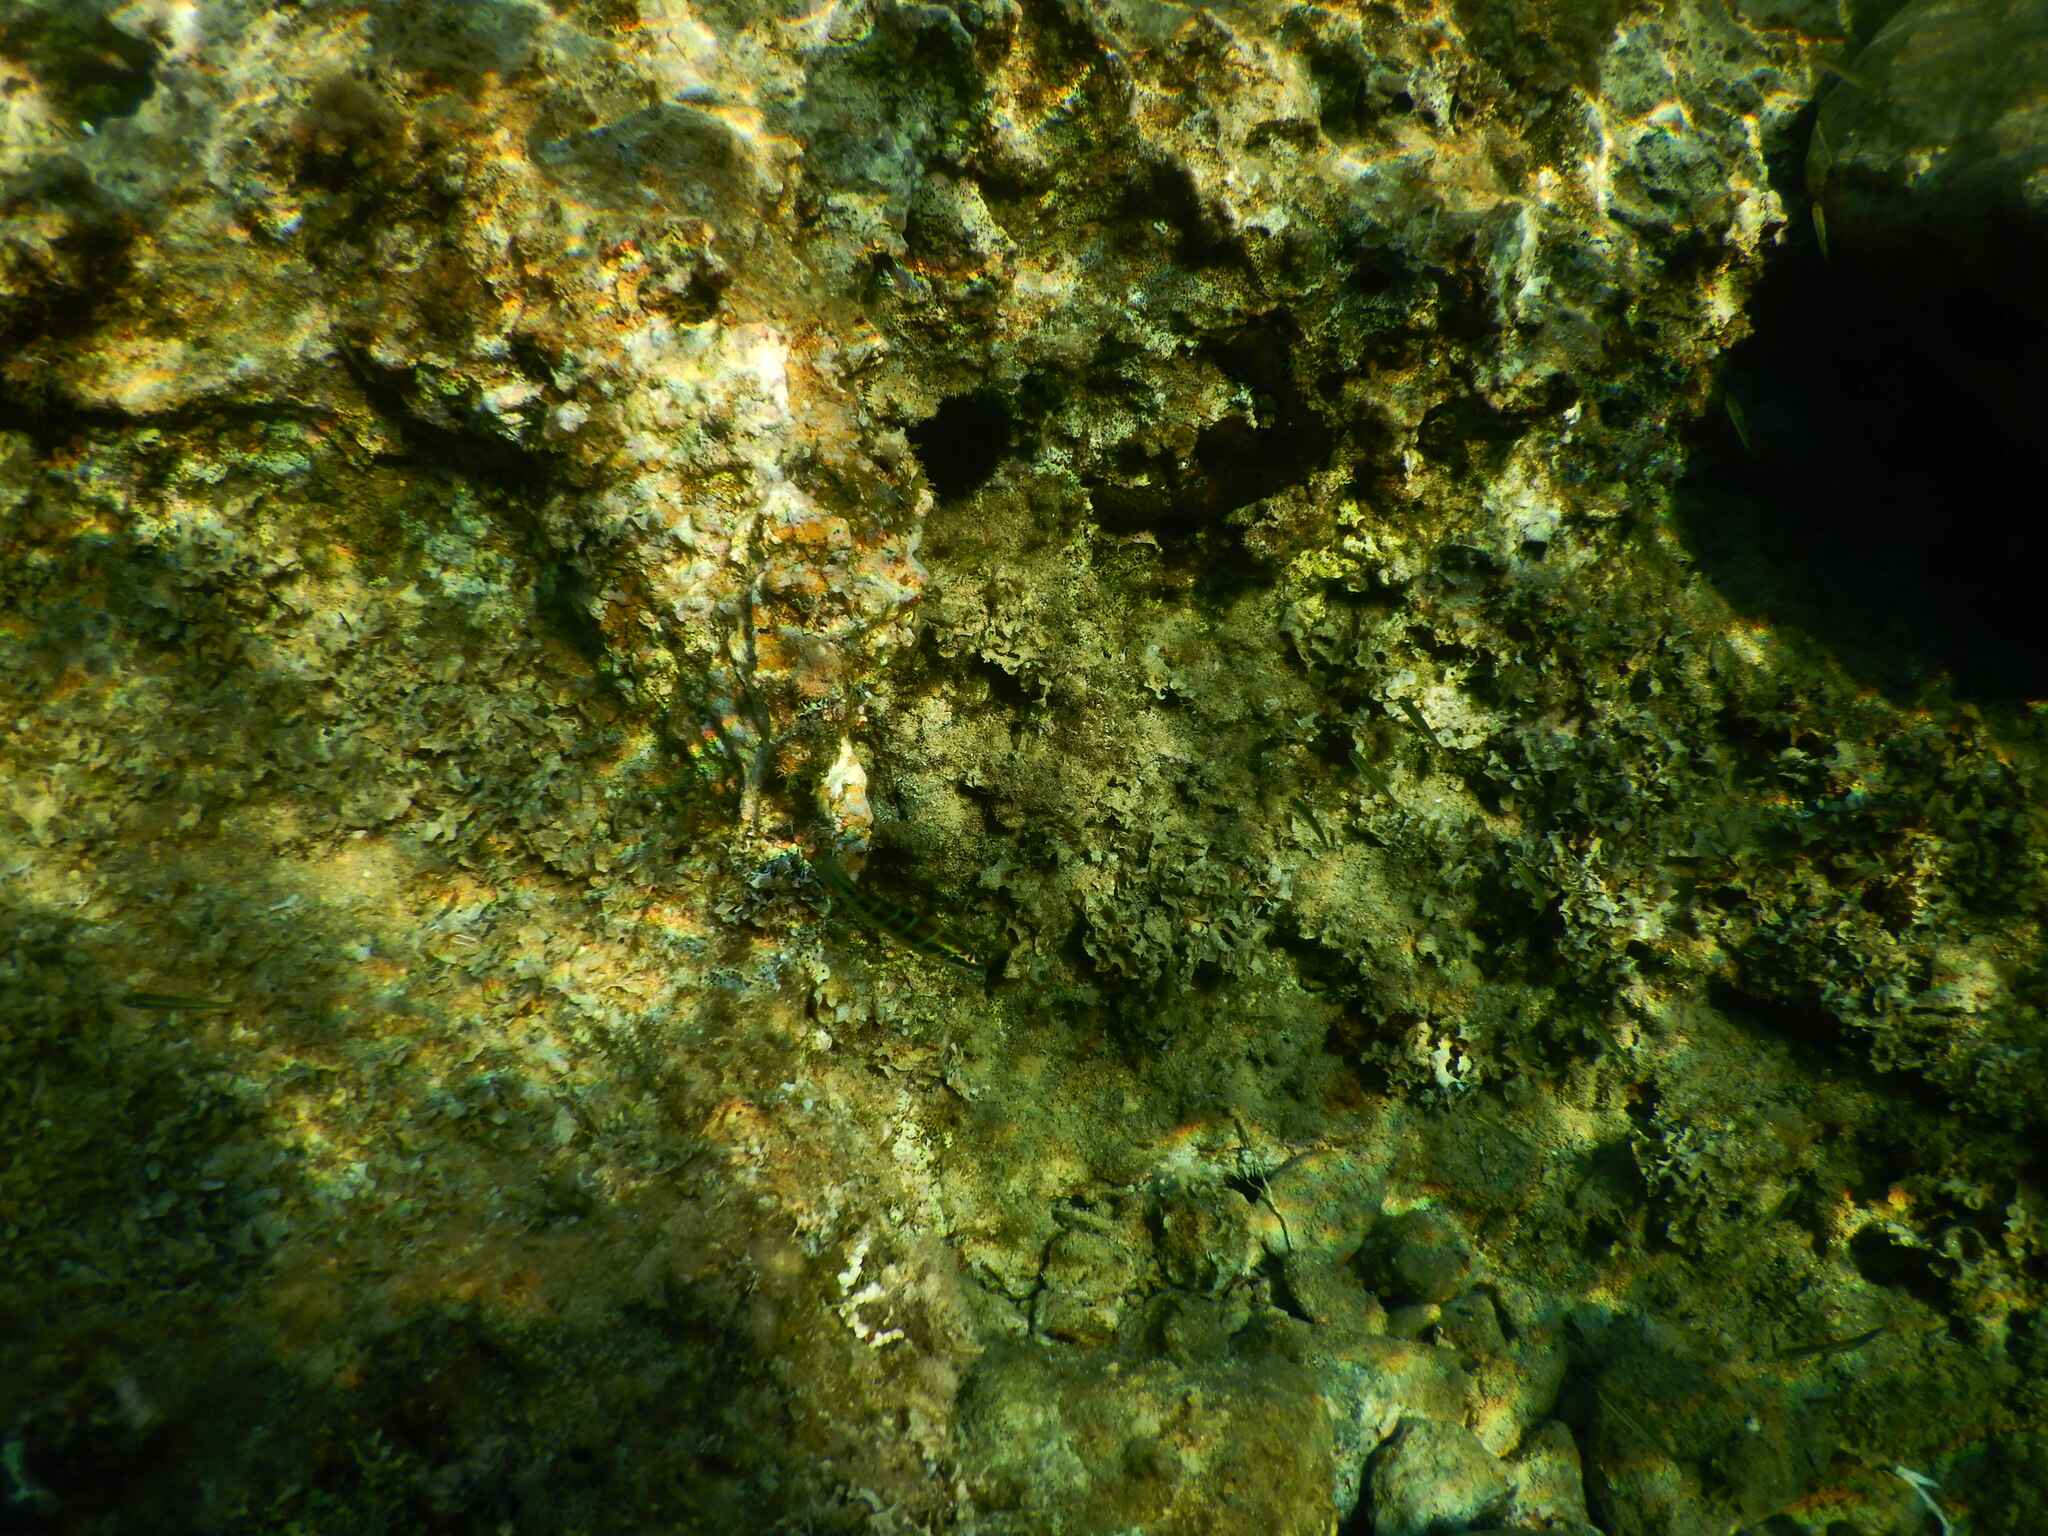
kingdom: Animalia
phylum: Chordata
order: Perciformes
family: Labridae
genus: Thalassoma
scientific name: Thalassoma pavo
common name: Ornate wrasse
